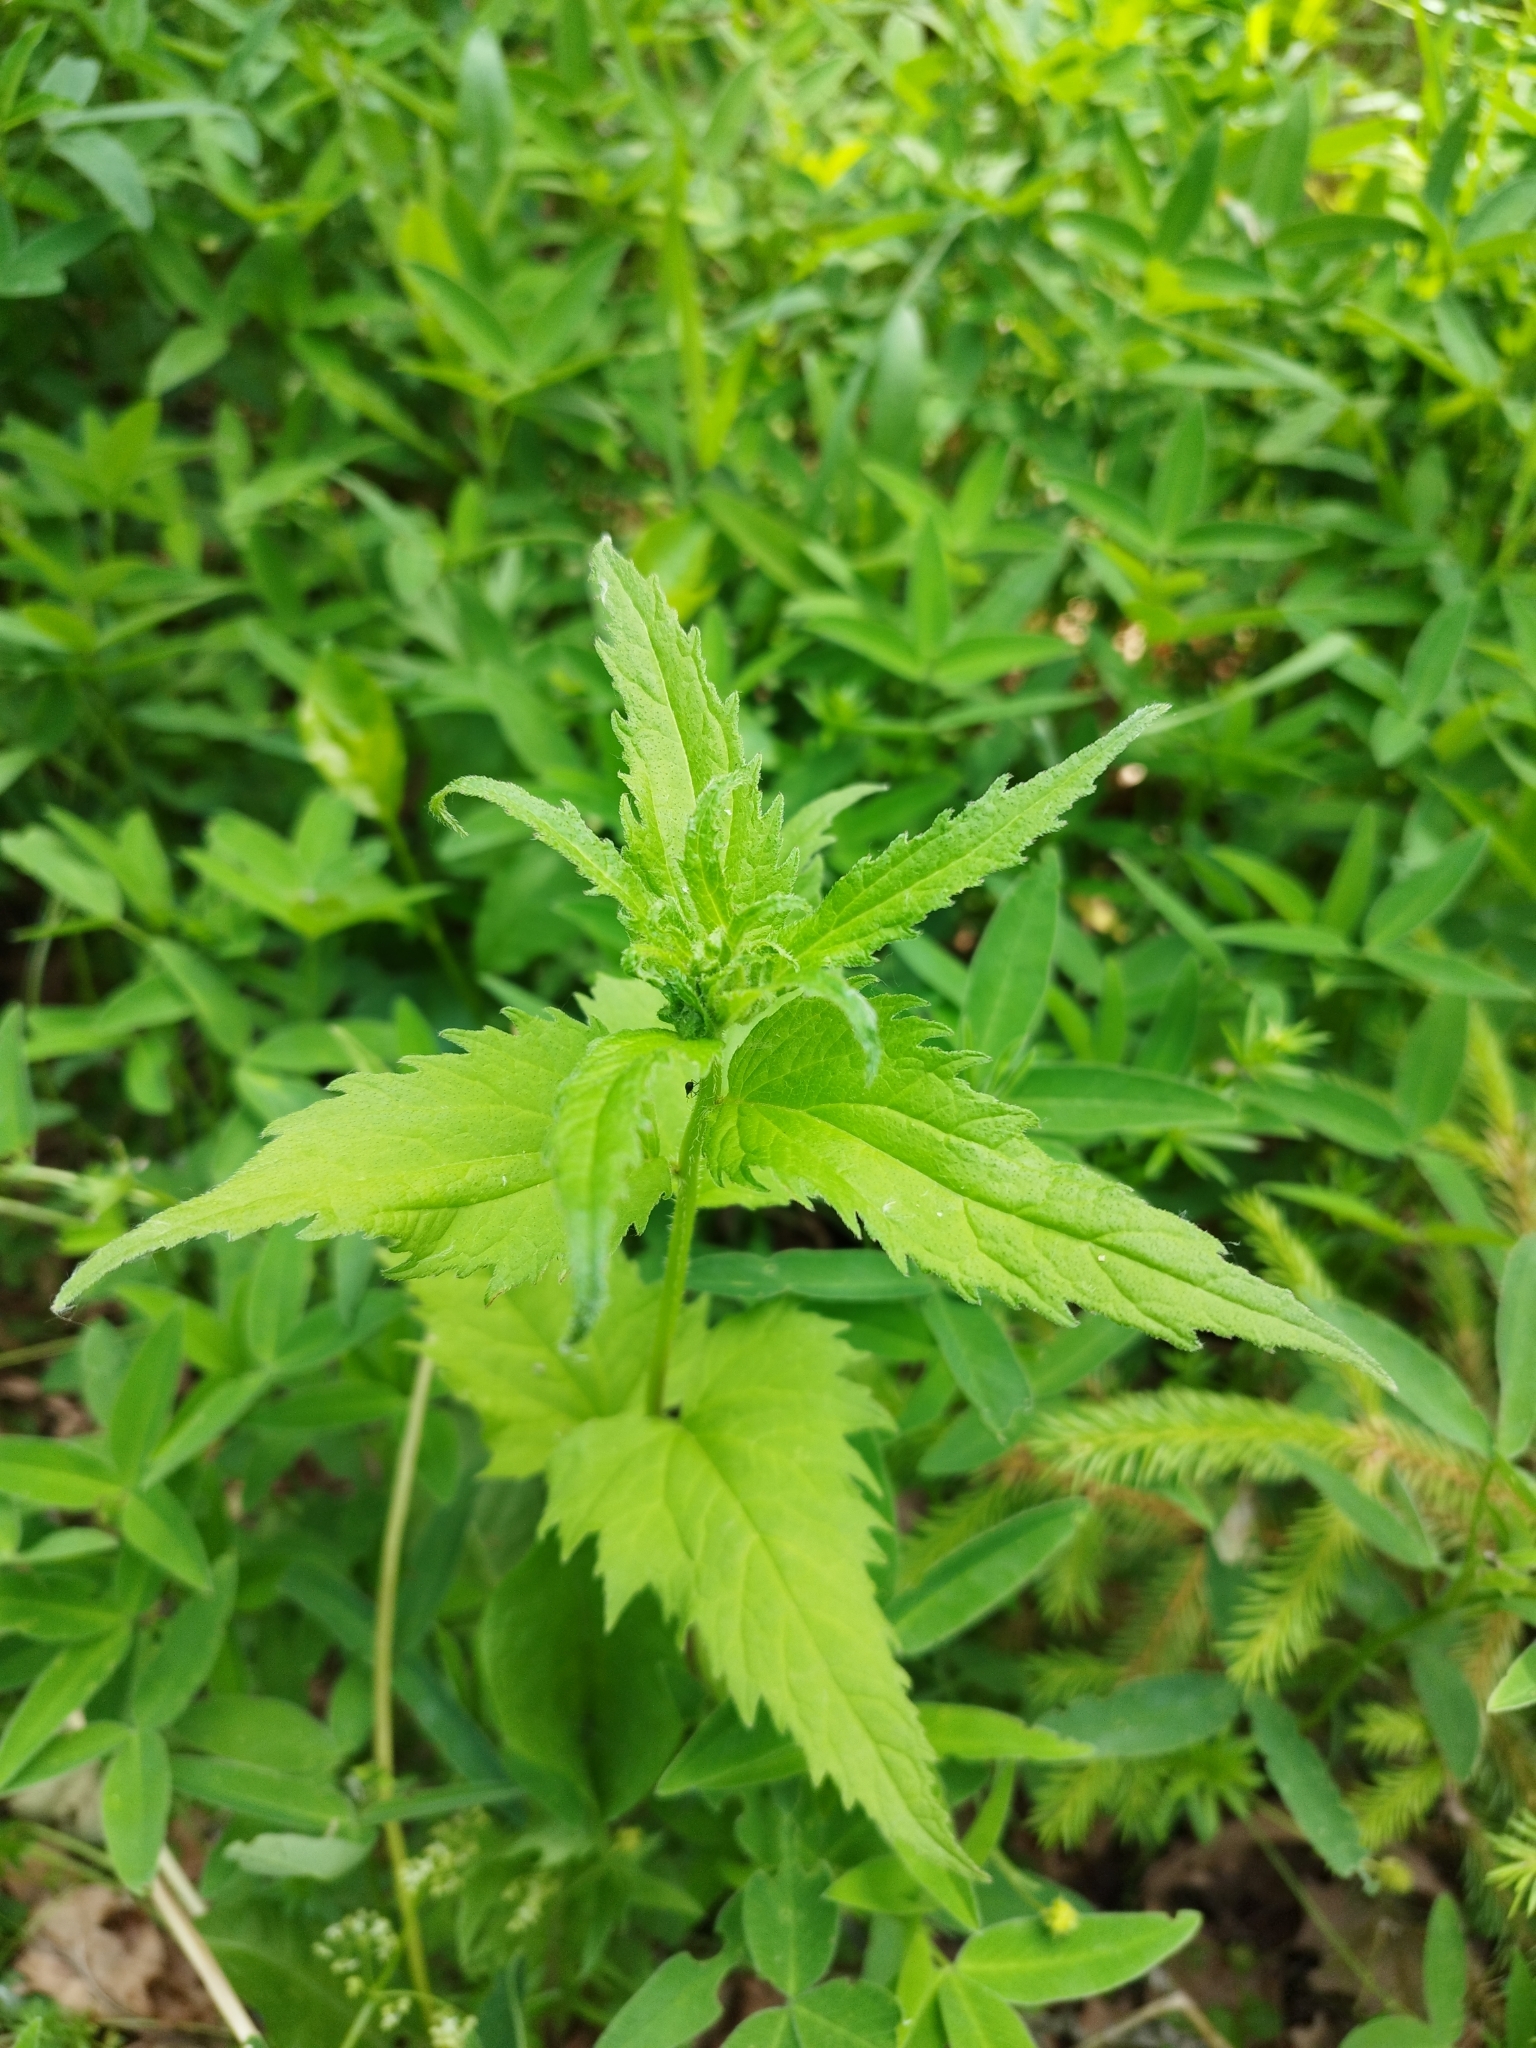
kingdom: Plantae
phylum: Tracheophyta
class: Magnoliopsida
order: Asterales
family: Campanulaceae
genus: Campanula
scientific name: Campanula trachelium
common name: Nettle-leaved bellflower
